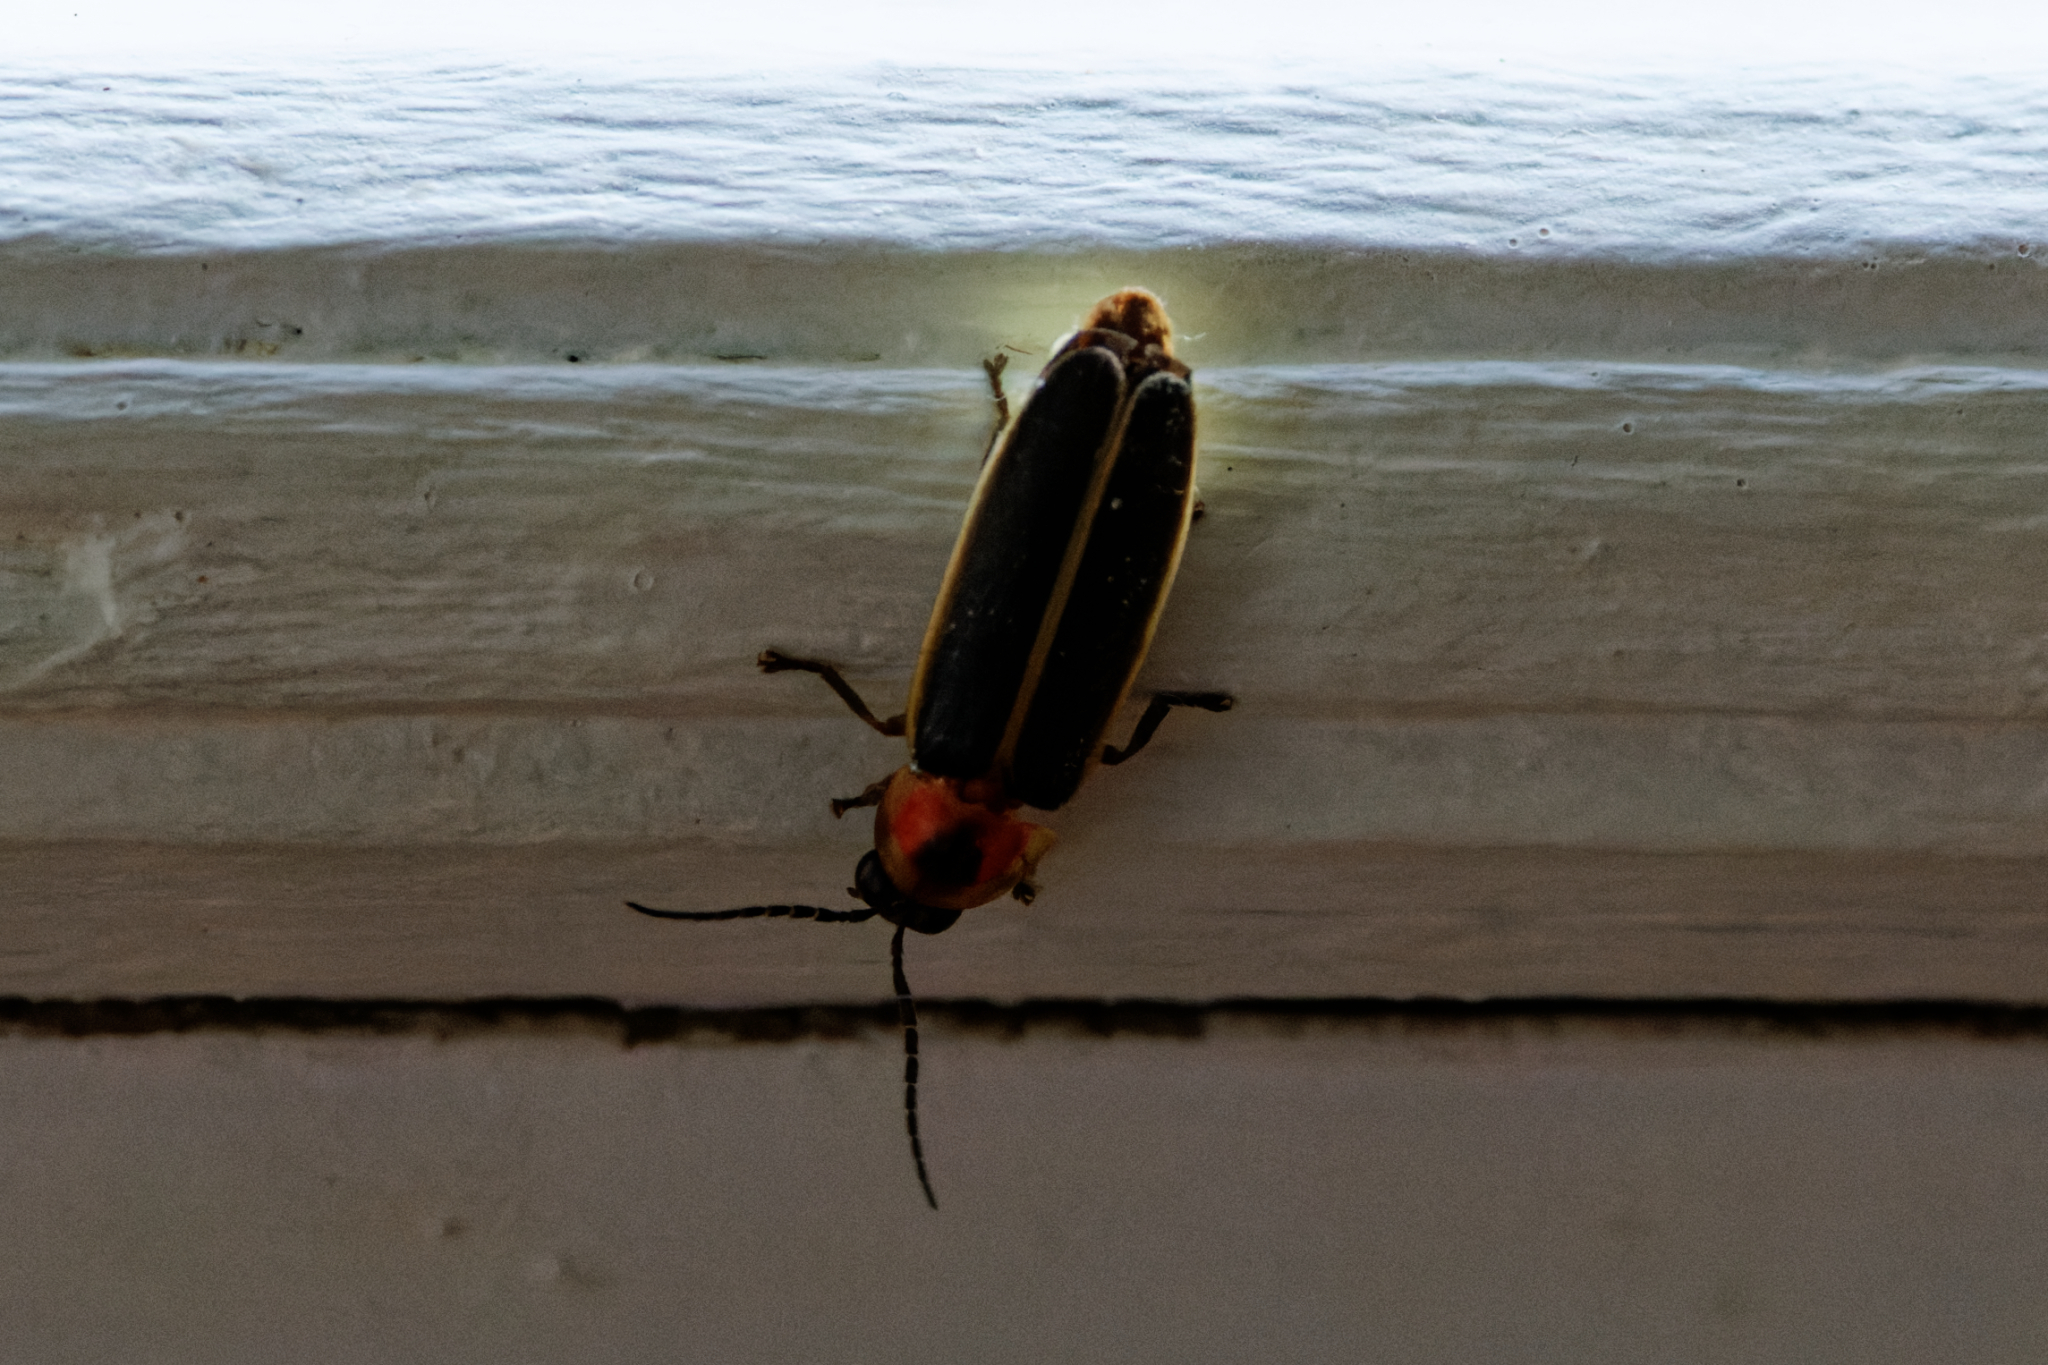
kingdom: Animalia
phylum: Arthropoda
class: Insecta
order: Coleoptera
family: Lampyridae
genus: Photinus
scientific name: Photinus pyralis
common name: Big dipper firefly
